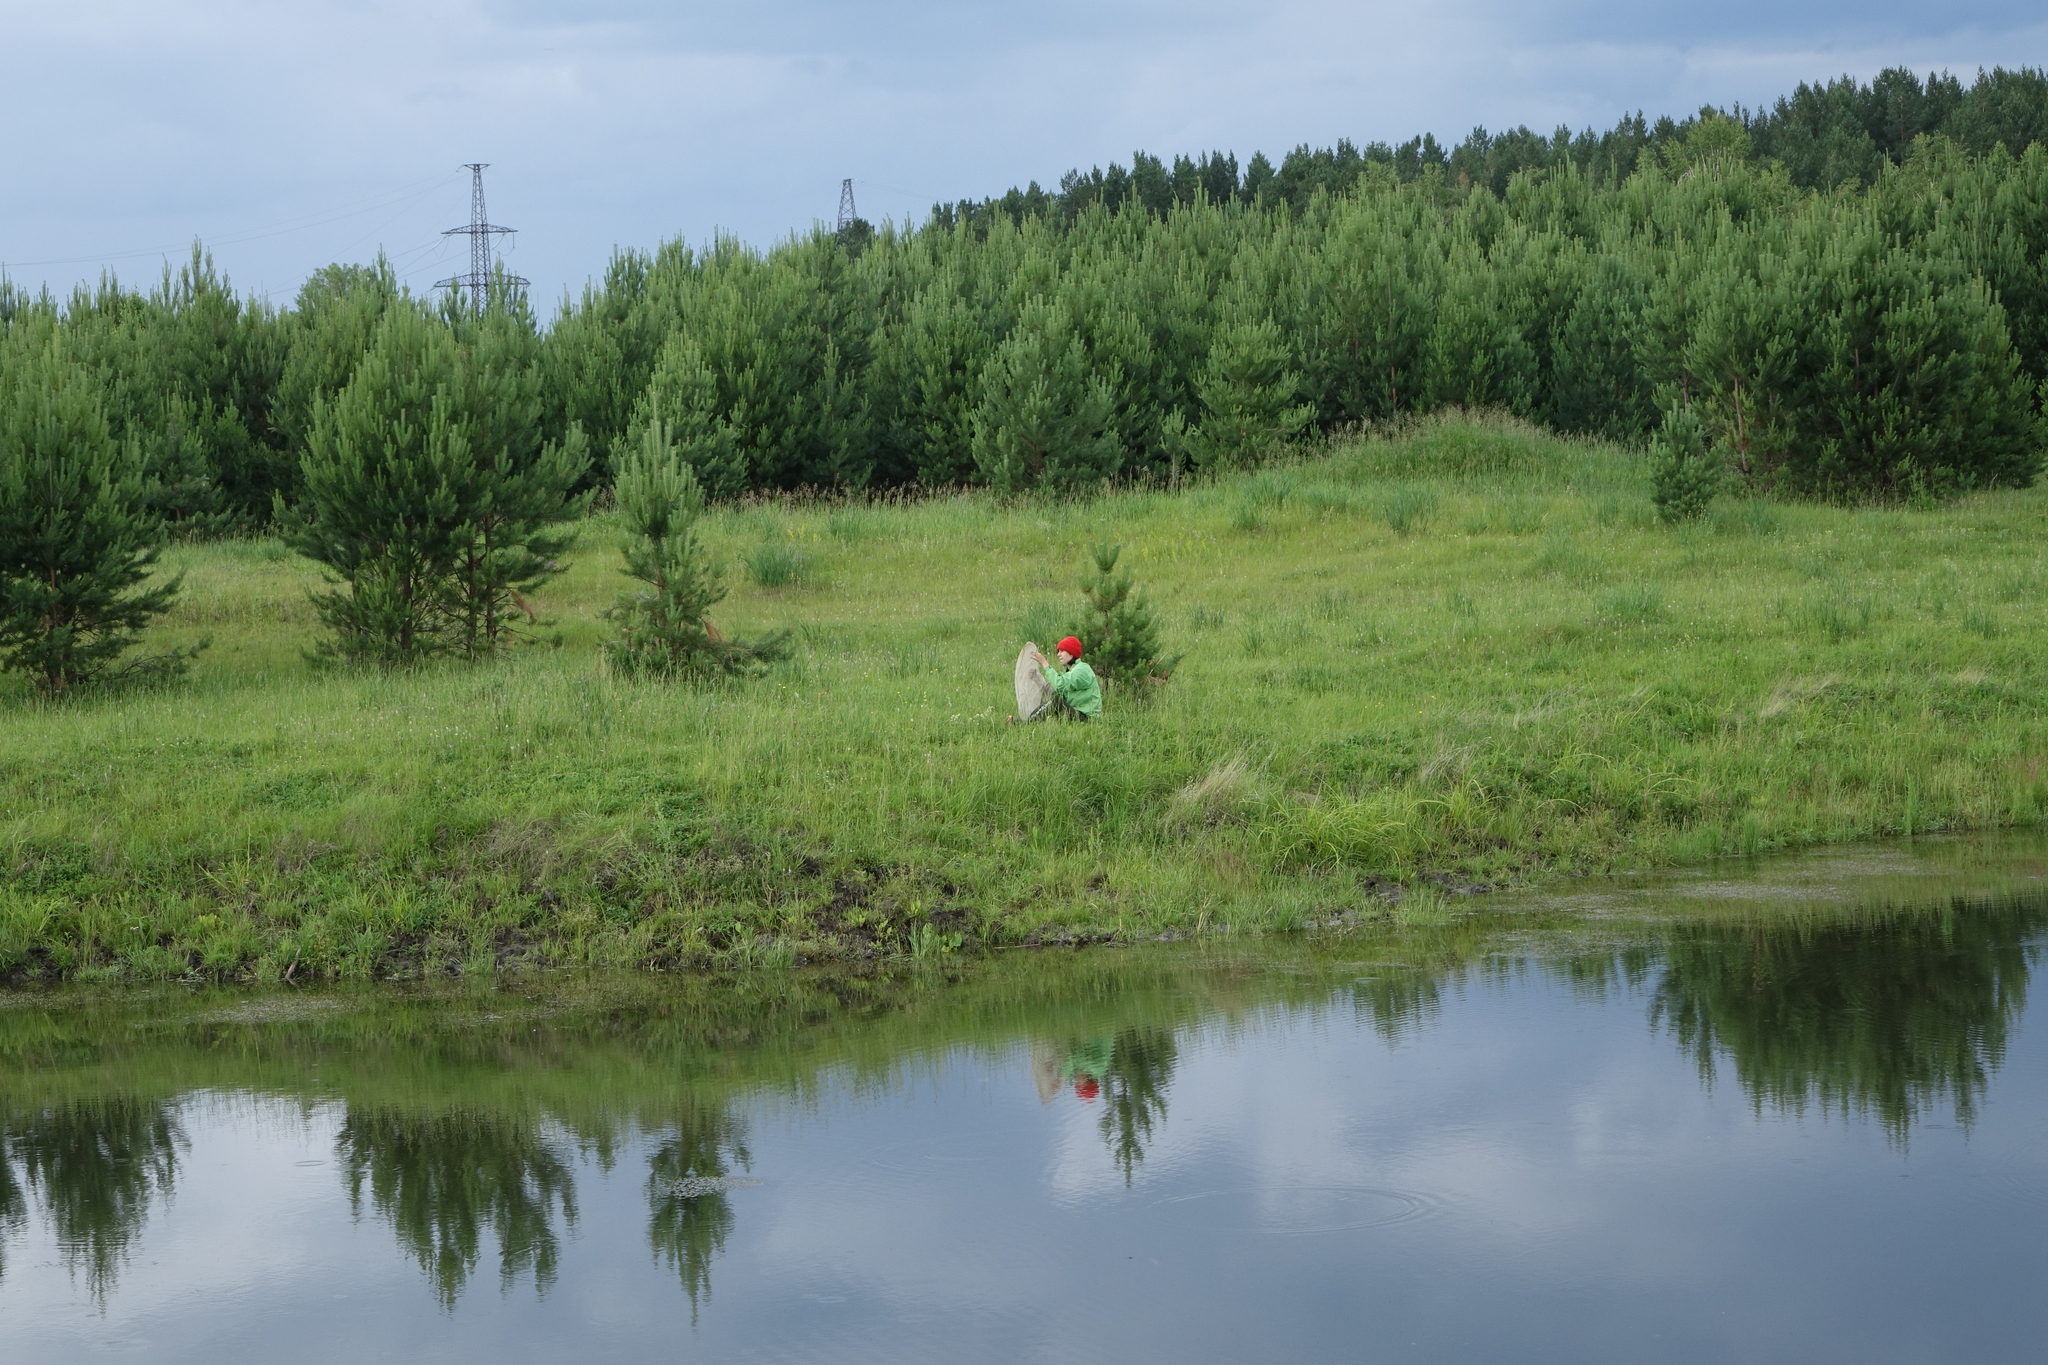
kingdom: Plantae
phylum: Tracheophyta
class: Pinopsida
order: Pinales
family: Pinaceae
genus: Pinus
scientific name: Pinus sylvestris
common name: Scots pine
